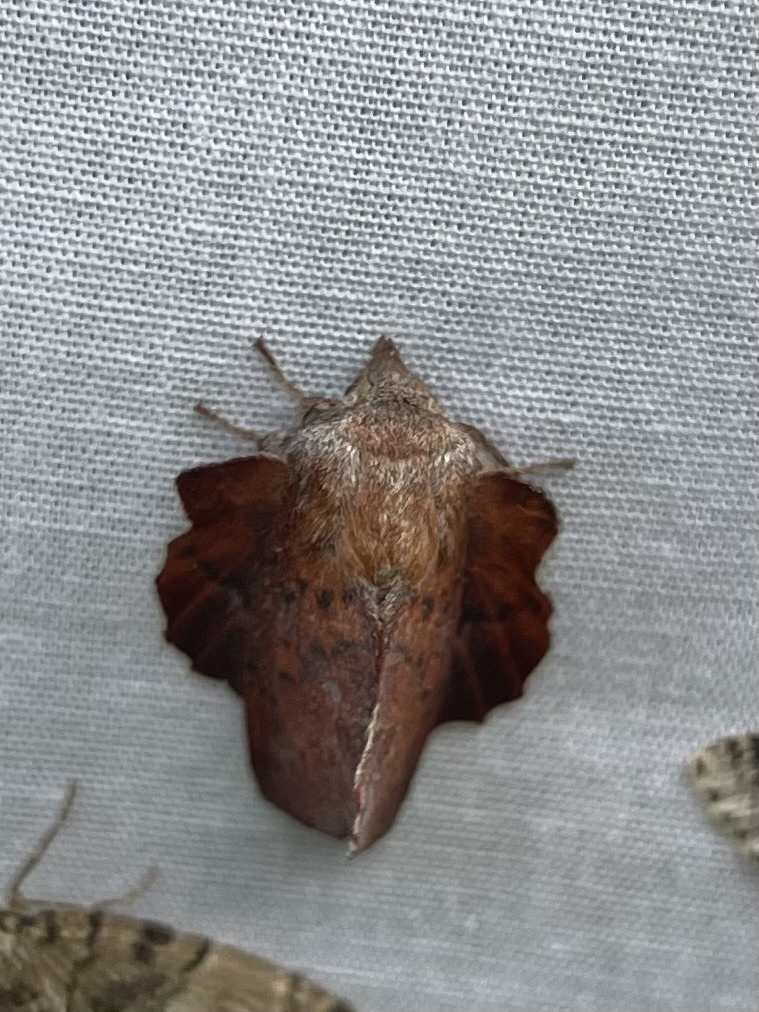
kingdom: Animalia
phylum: Arthropoda
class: Insecta
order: Lepidoptera
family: Lasiocampidae
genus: Phyllodesma
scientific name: Phyllodesma americana
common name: American lappet moth
